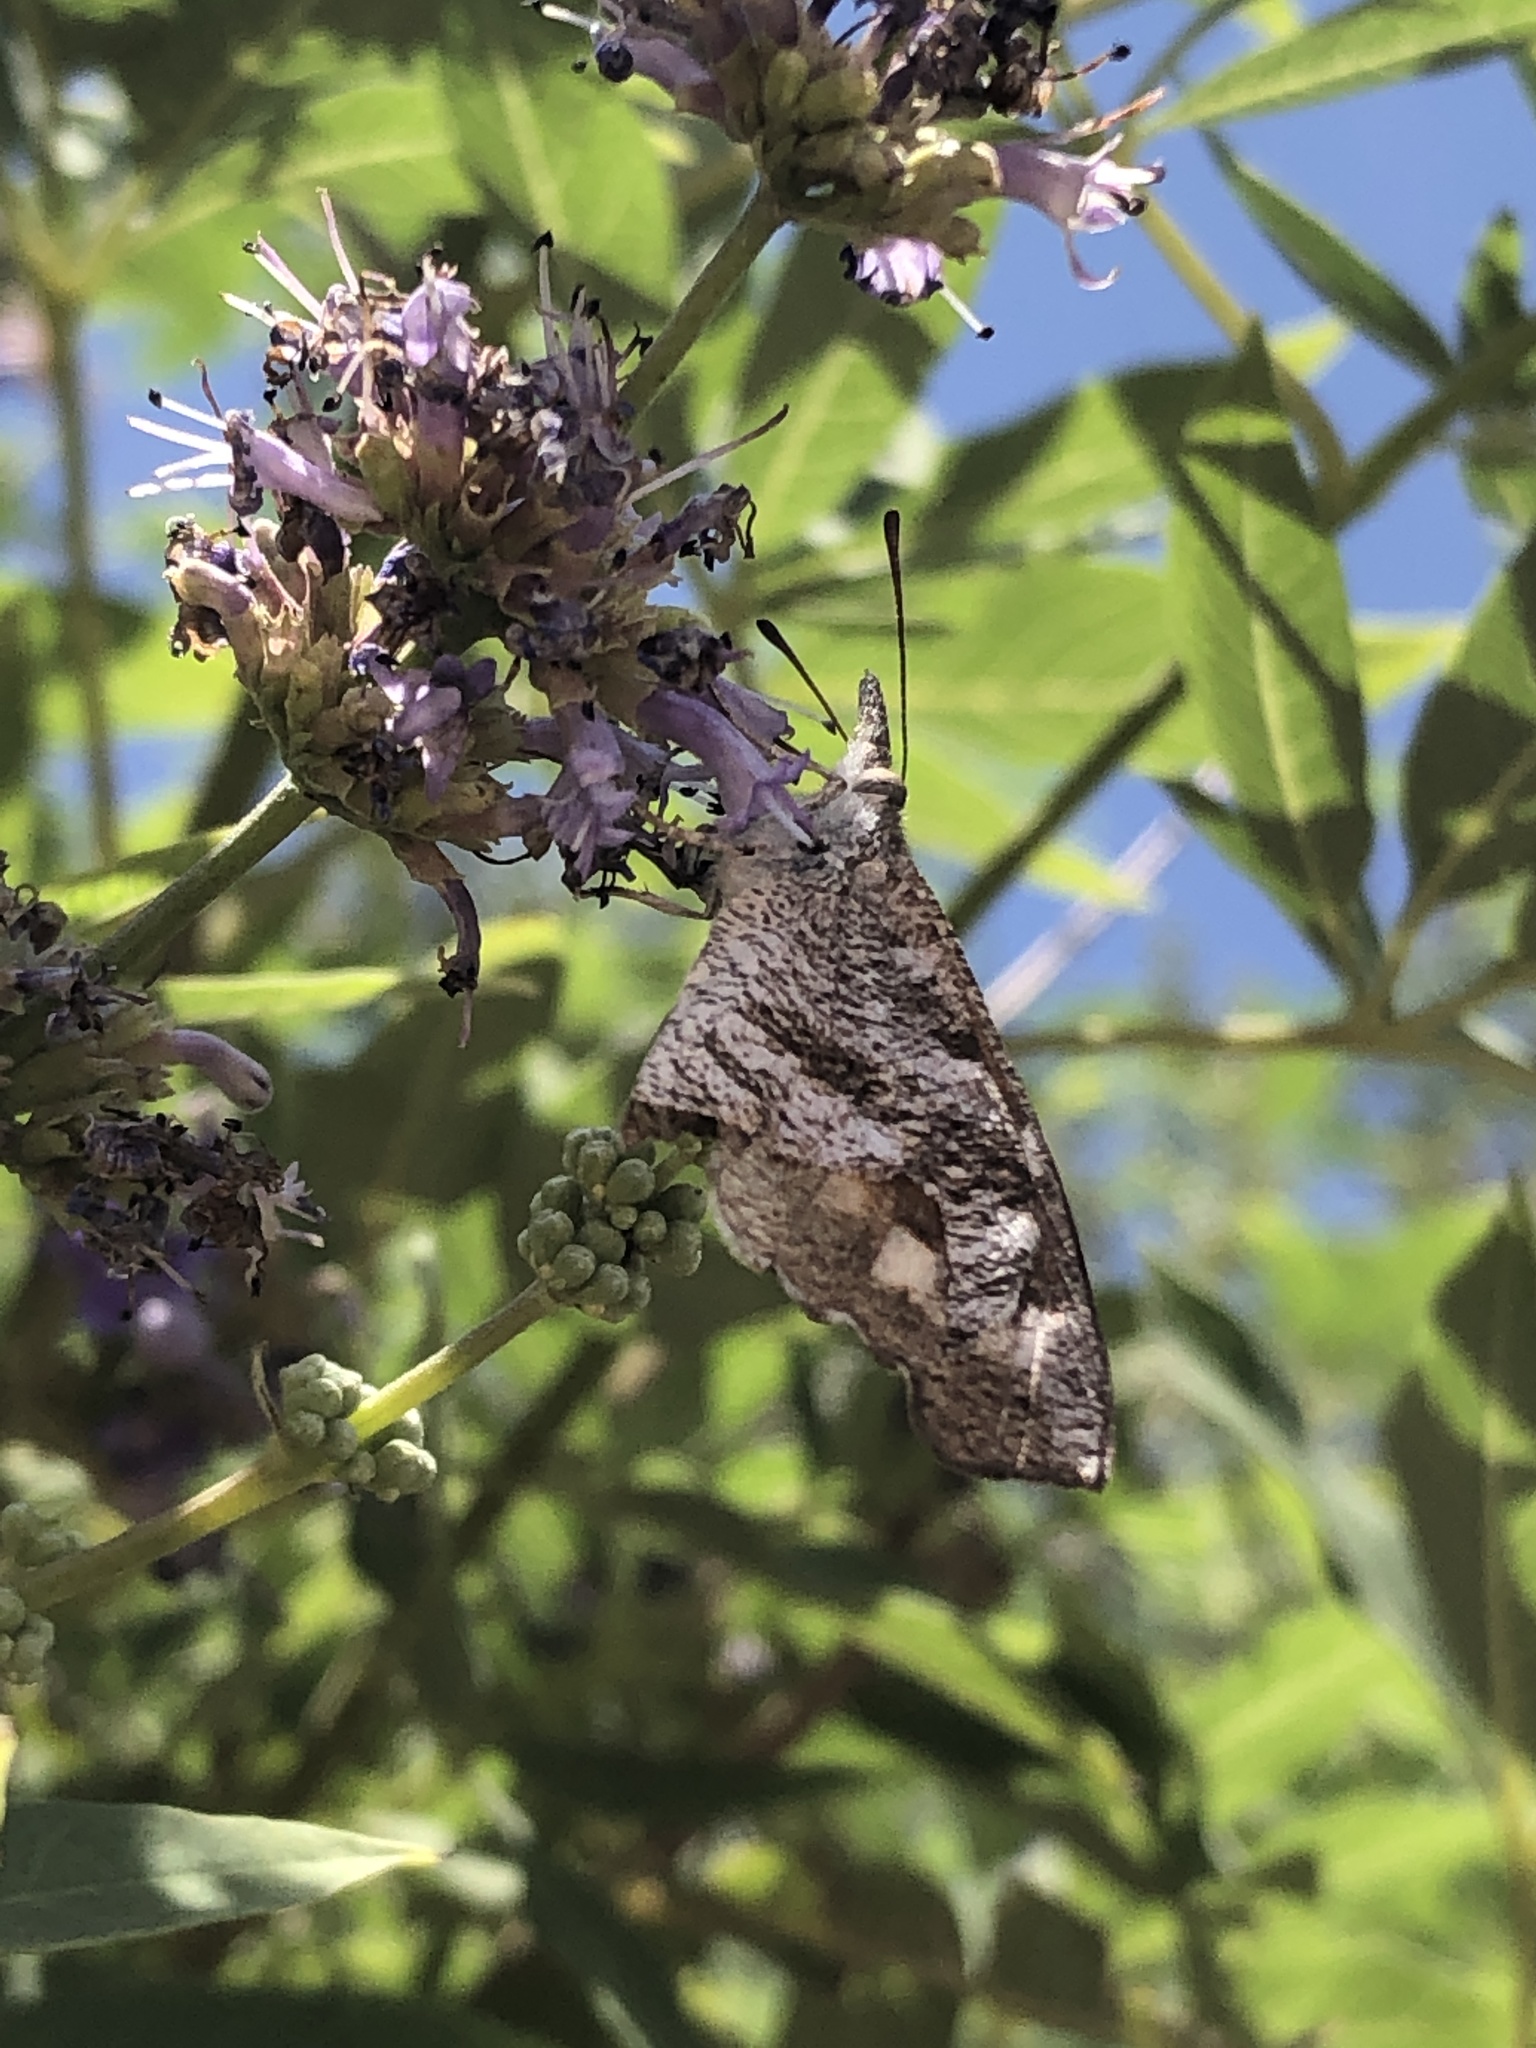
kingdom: Animalia
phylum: Arthropoda
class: Insecta
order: Lepidoptera
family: Nymphalidae
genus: Libytheana
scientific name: Libytheana carinenta
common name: American snout
